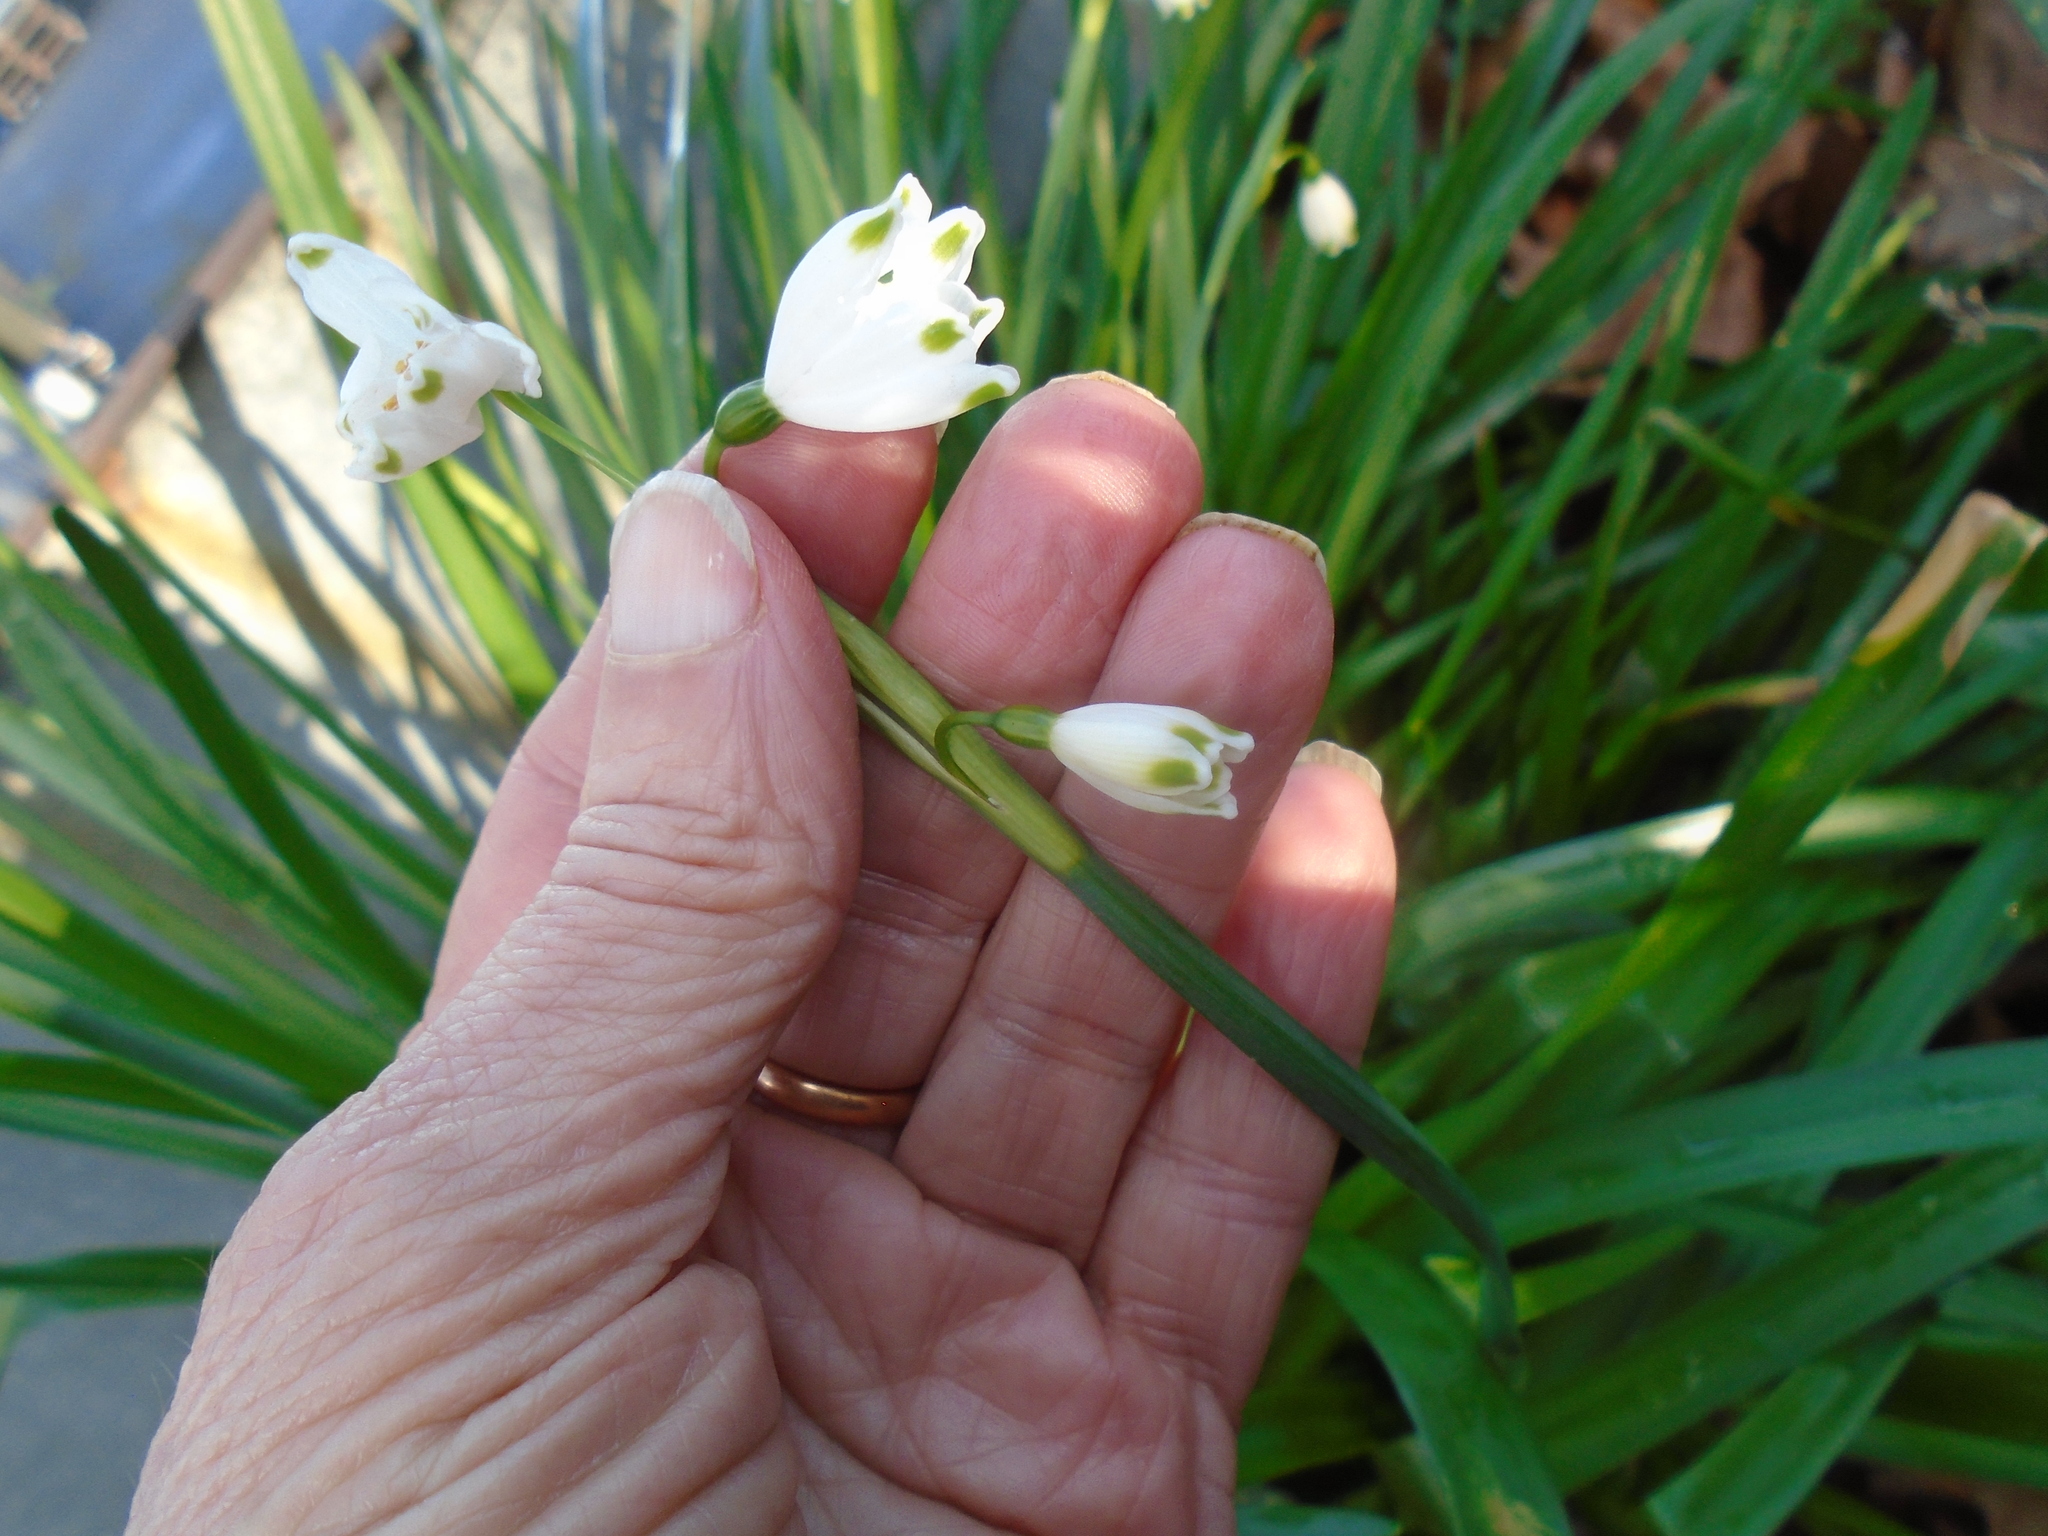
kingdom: Plantae
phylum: Tracheophyta
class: Liliopsida
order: Asparagales
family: Amaryllidaceae
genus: Leucojum
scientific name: Leucojum aestivum
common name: Summer snowflake
